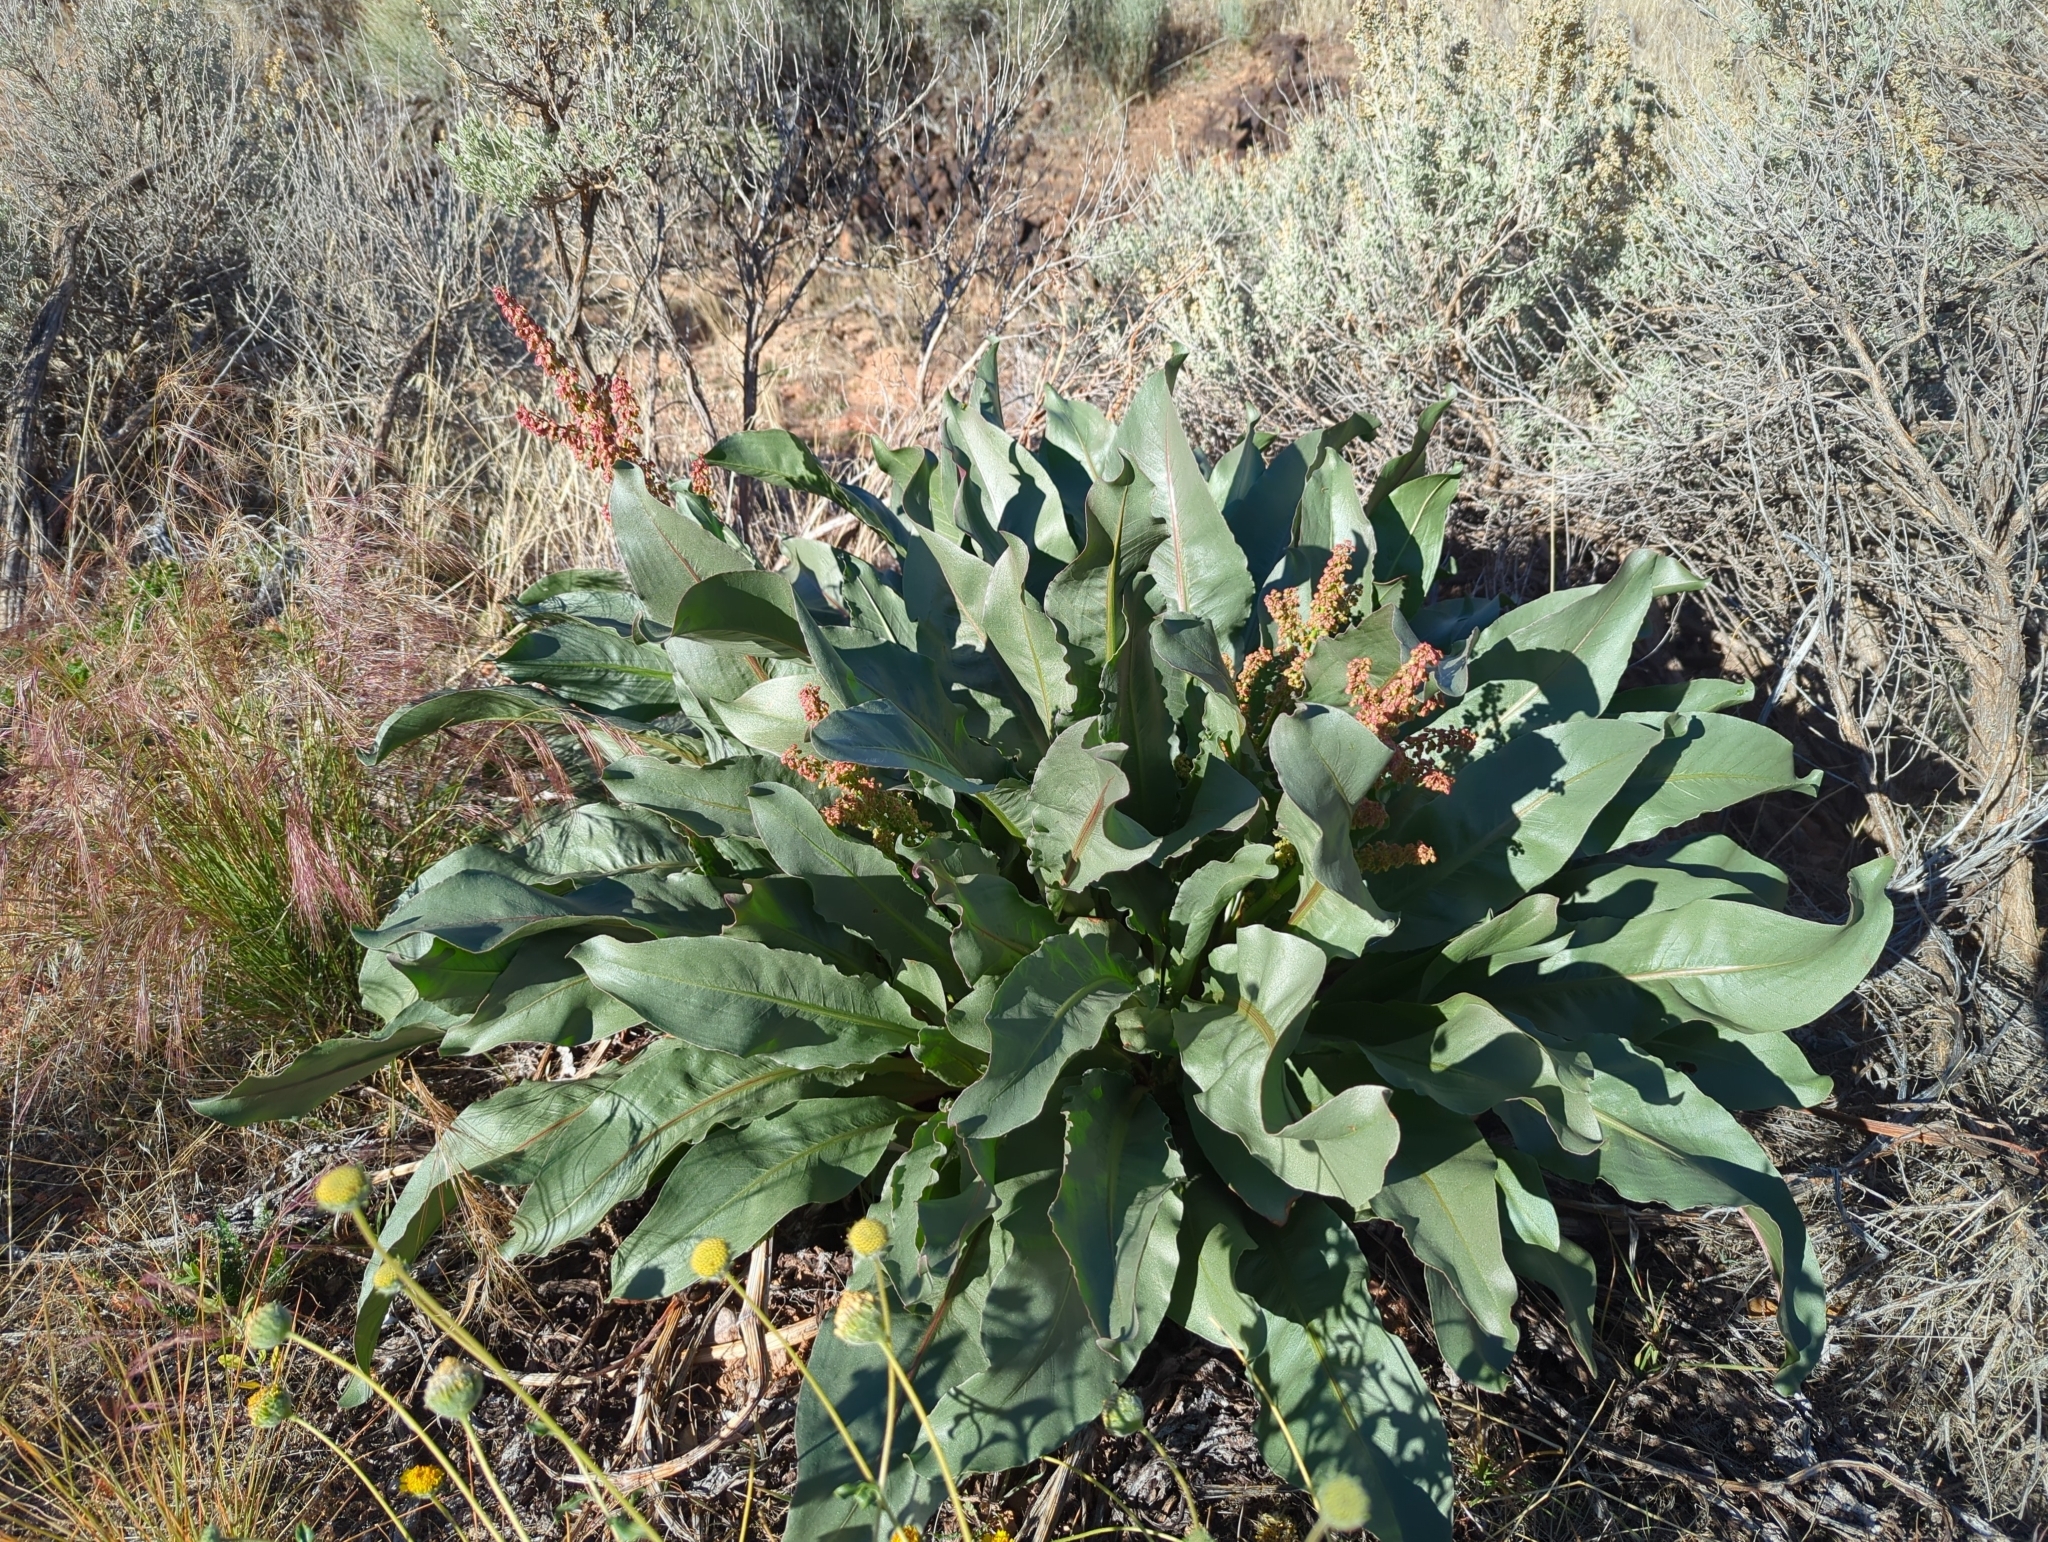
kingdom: Plantae
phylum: Tracheophyta
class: Magnoliopsida
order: Caryophyllales
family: Polygonaceae
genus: Rumex
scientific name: Rumex hymenosepalus
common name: Ganagra
